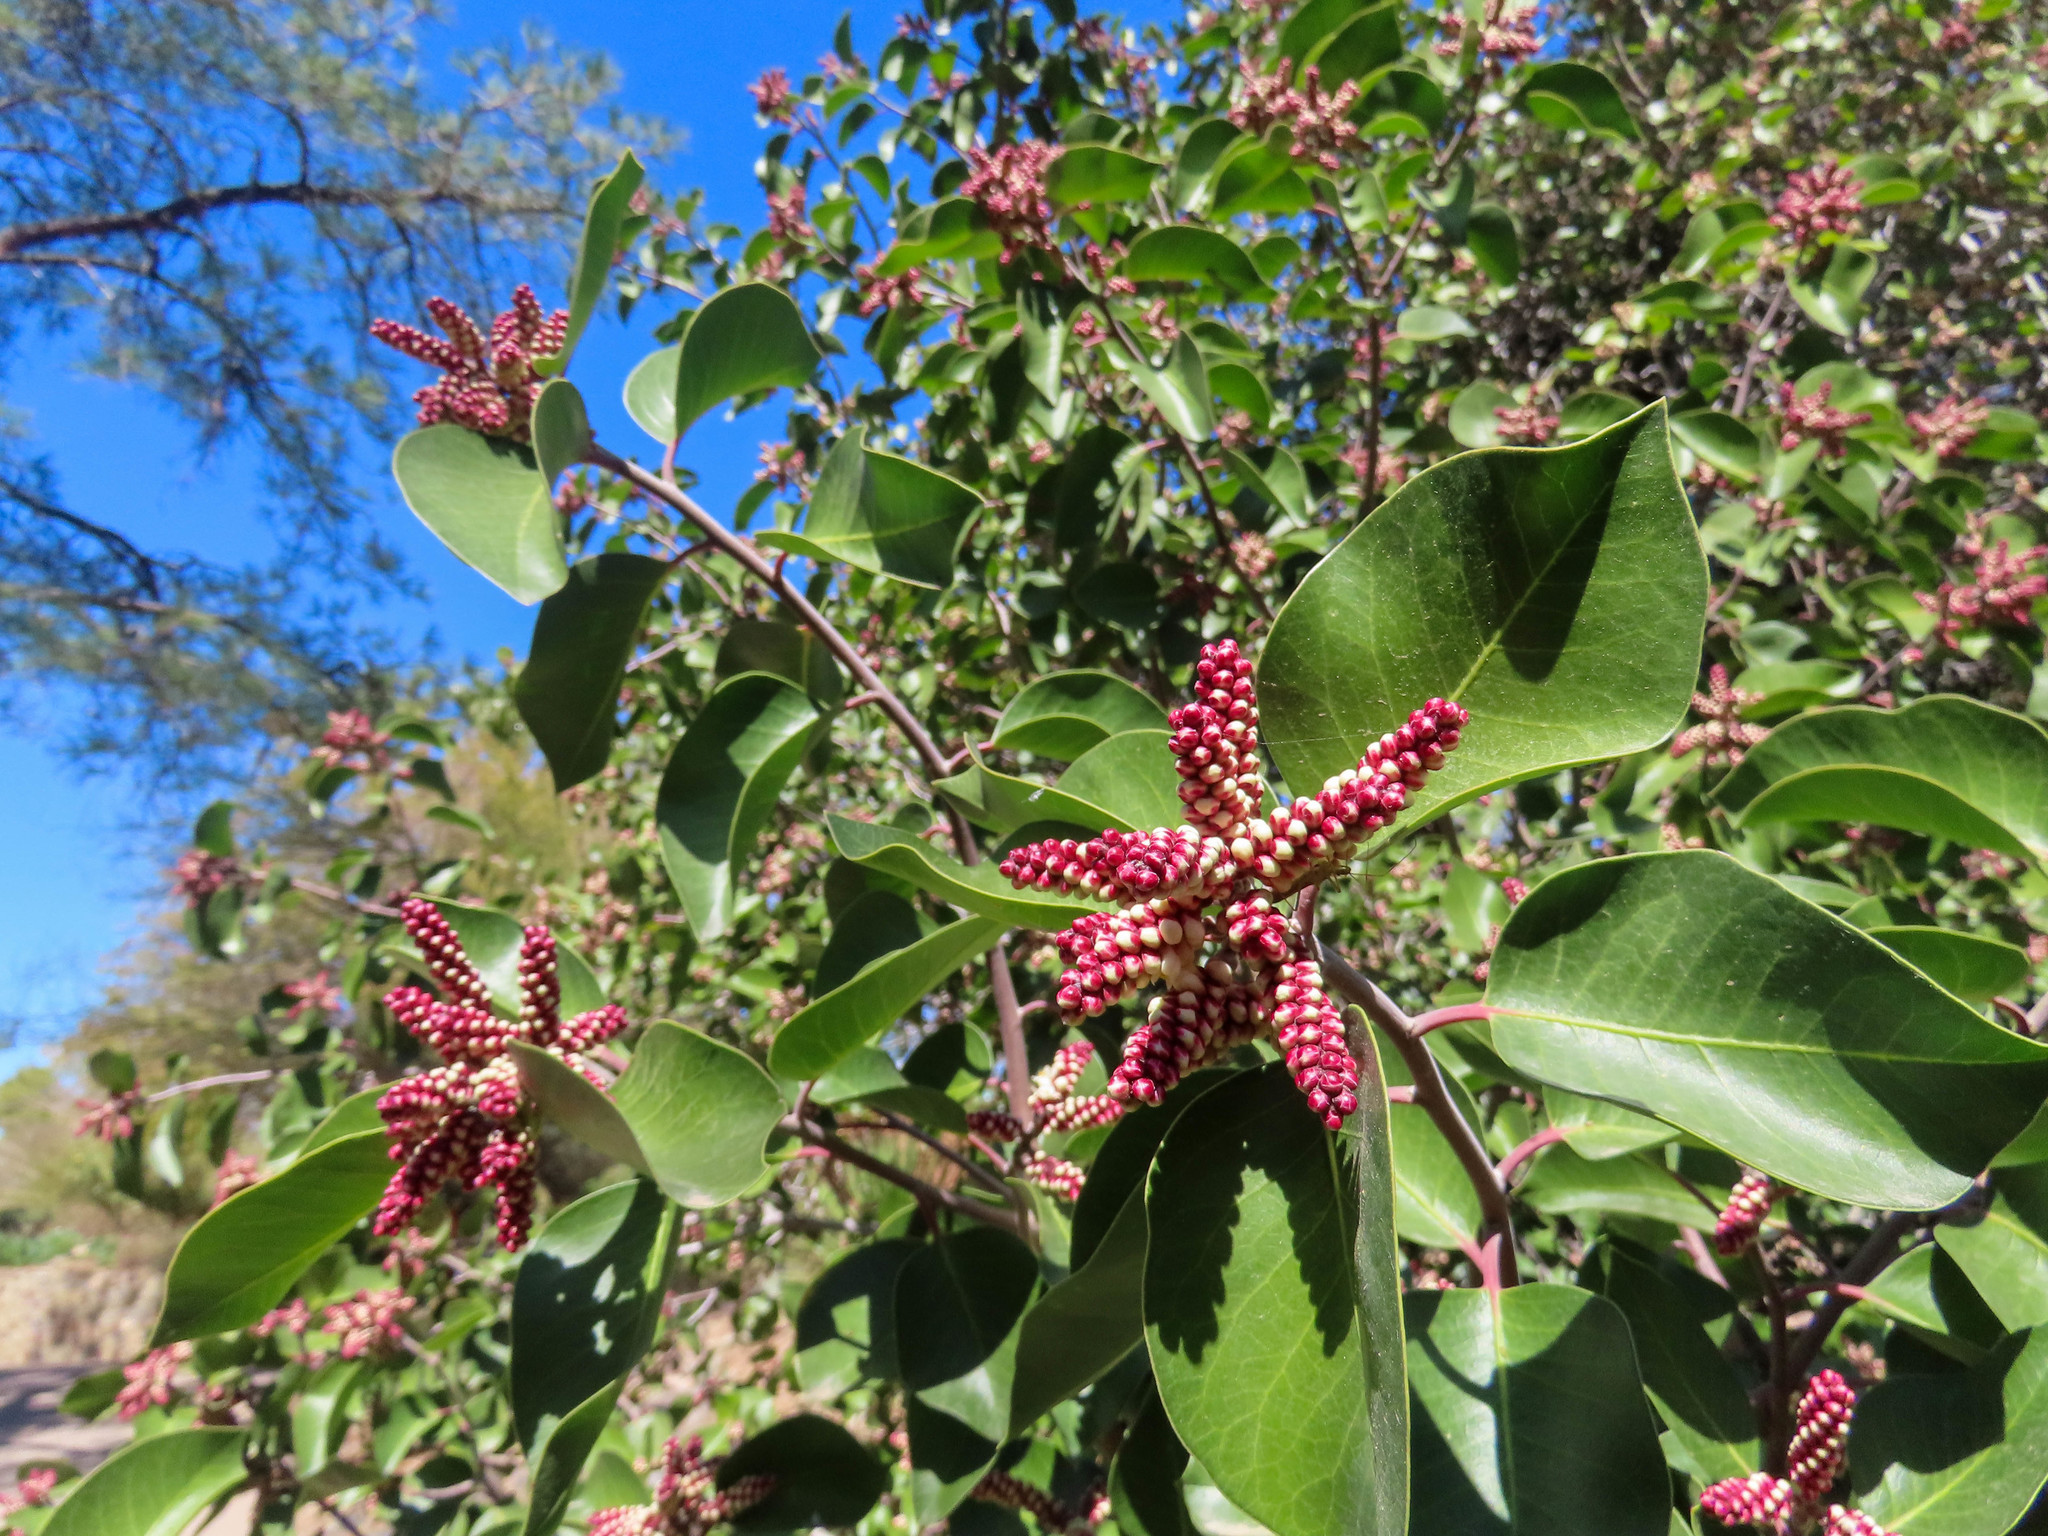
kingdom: Plantae
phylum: Tracheophyta
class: Magnoliopsida
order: Sapindales
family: Anacardiaceae
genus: Rhus
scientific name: Rhus ovata
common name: Sugar sumac
